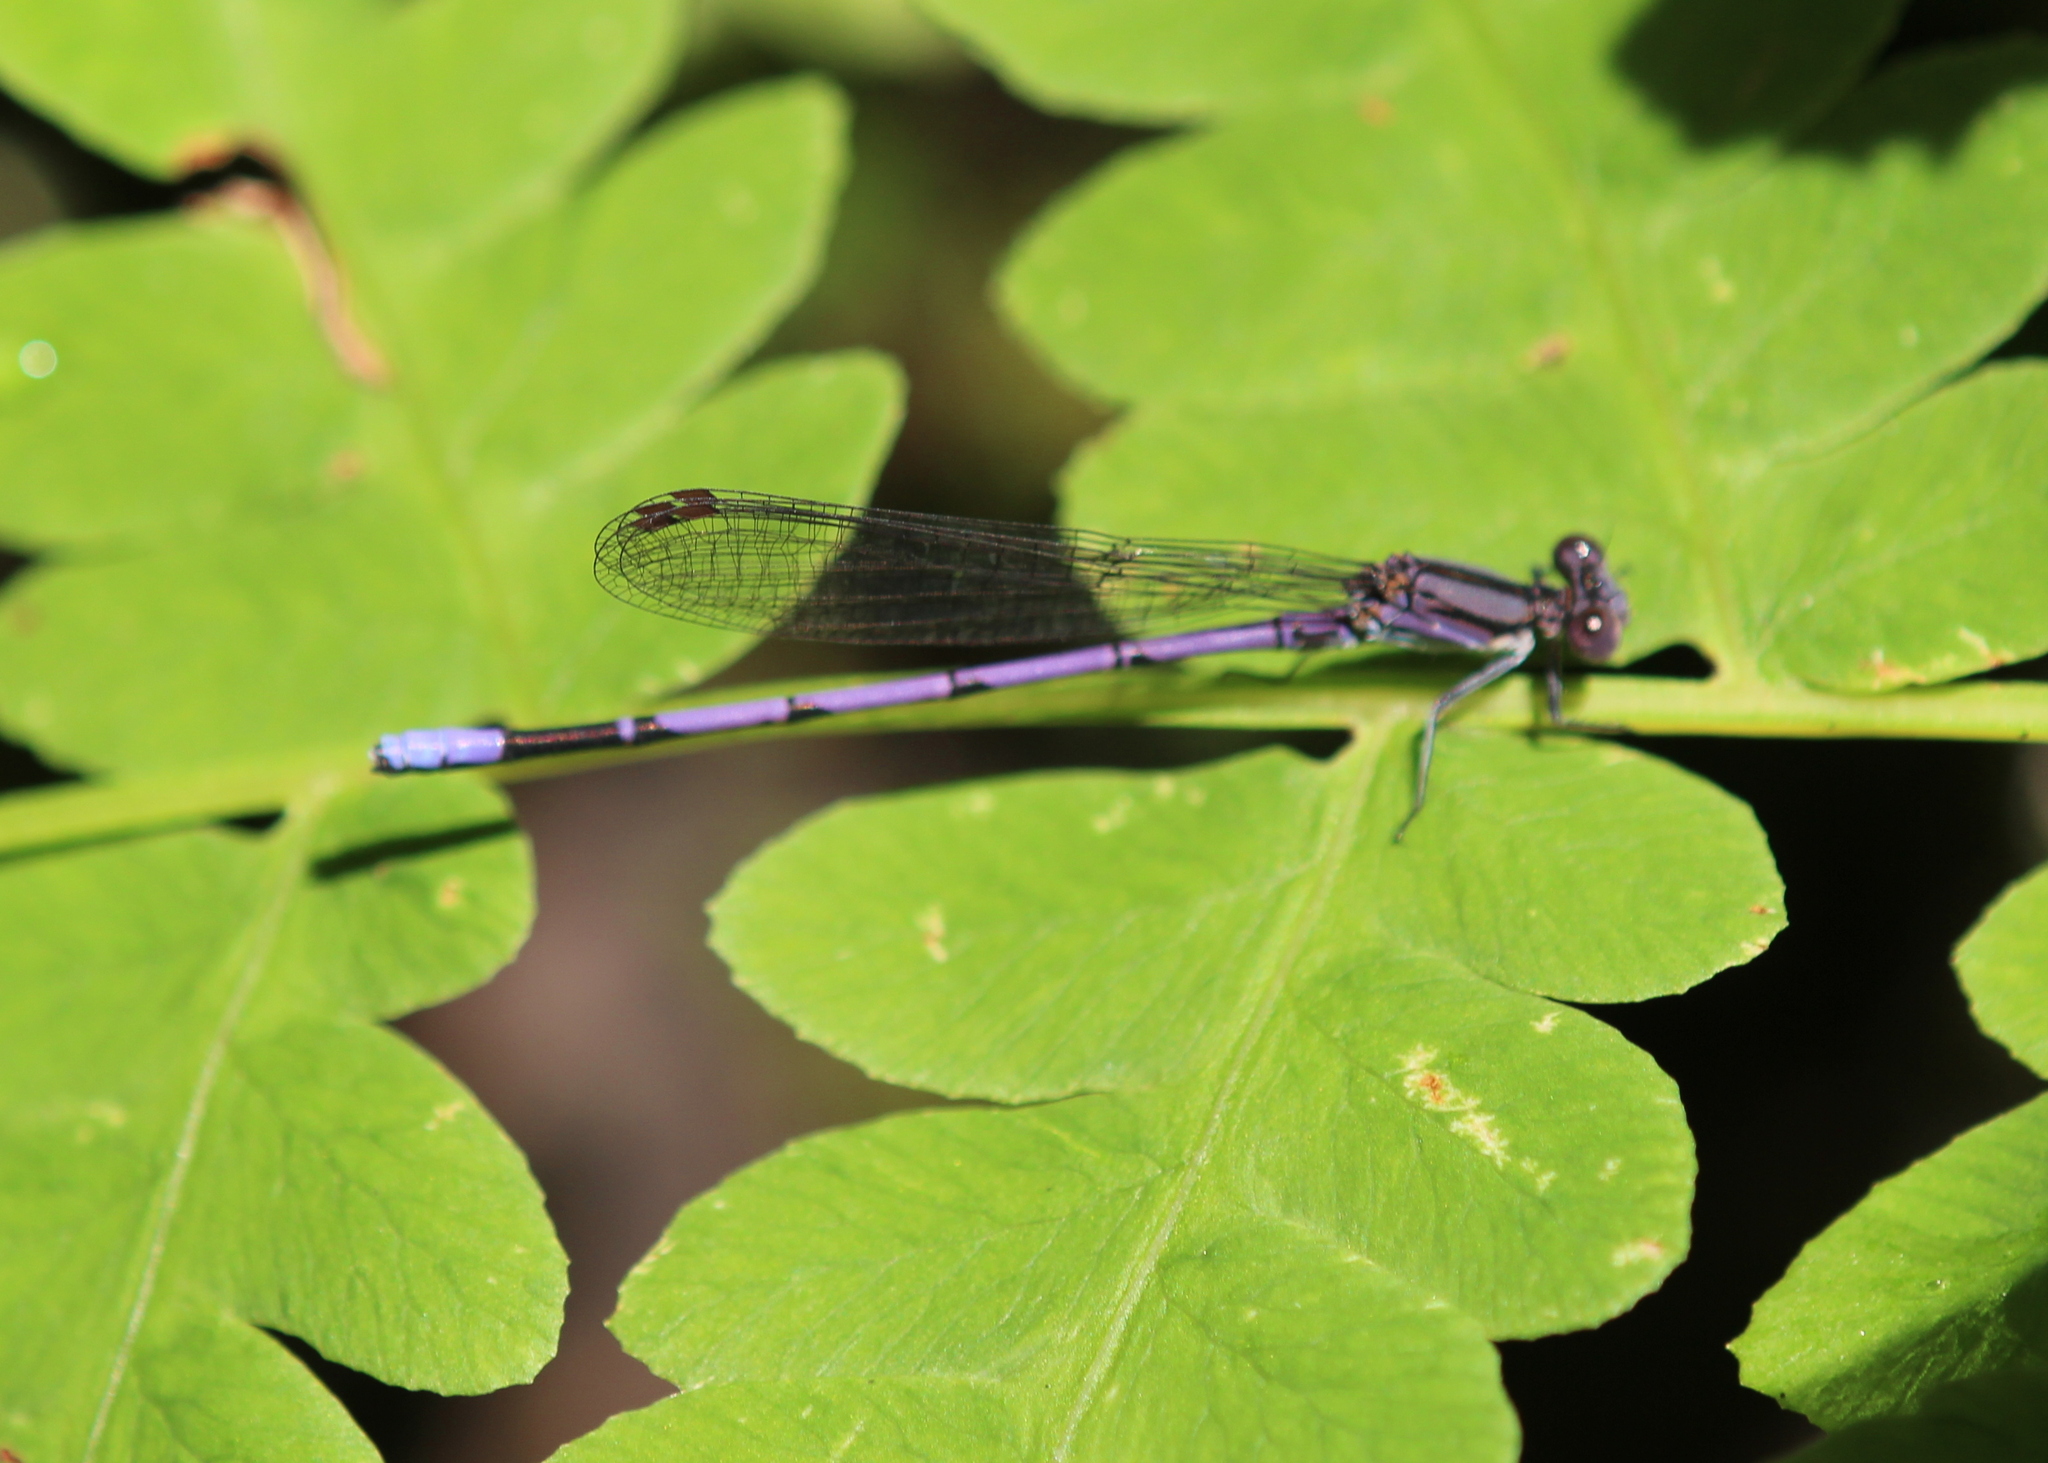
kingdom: Animalia
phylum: Arthropoda
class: Insecta
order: Odonata
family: Coenagrionidae
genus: Argia
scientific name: Argia fumipennis
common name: Variable dancer
